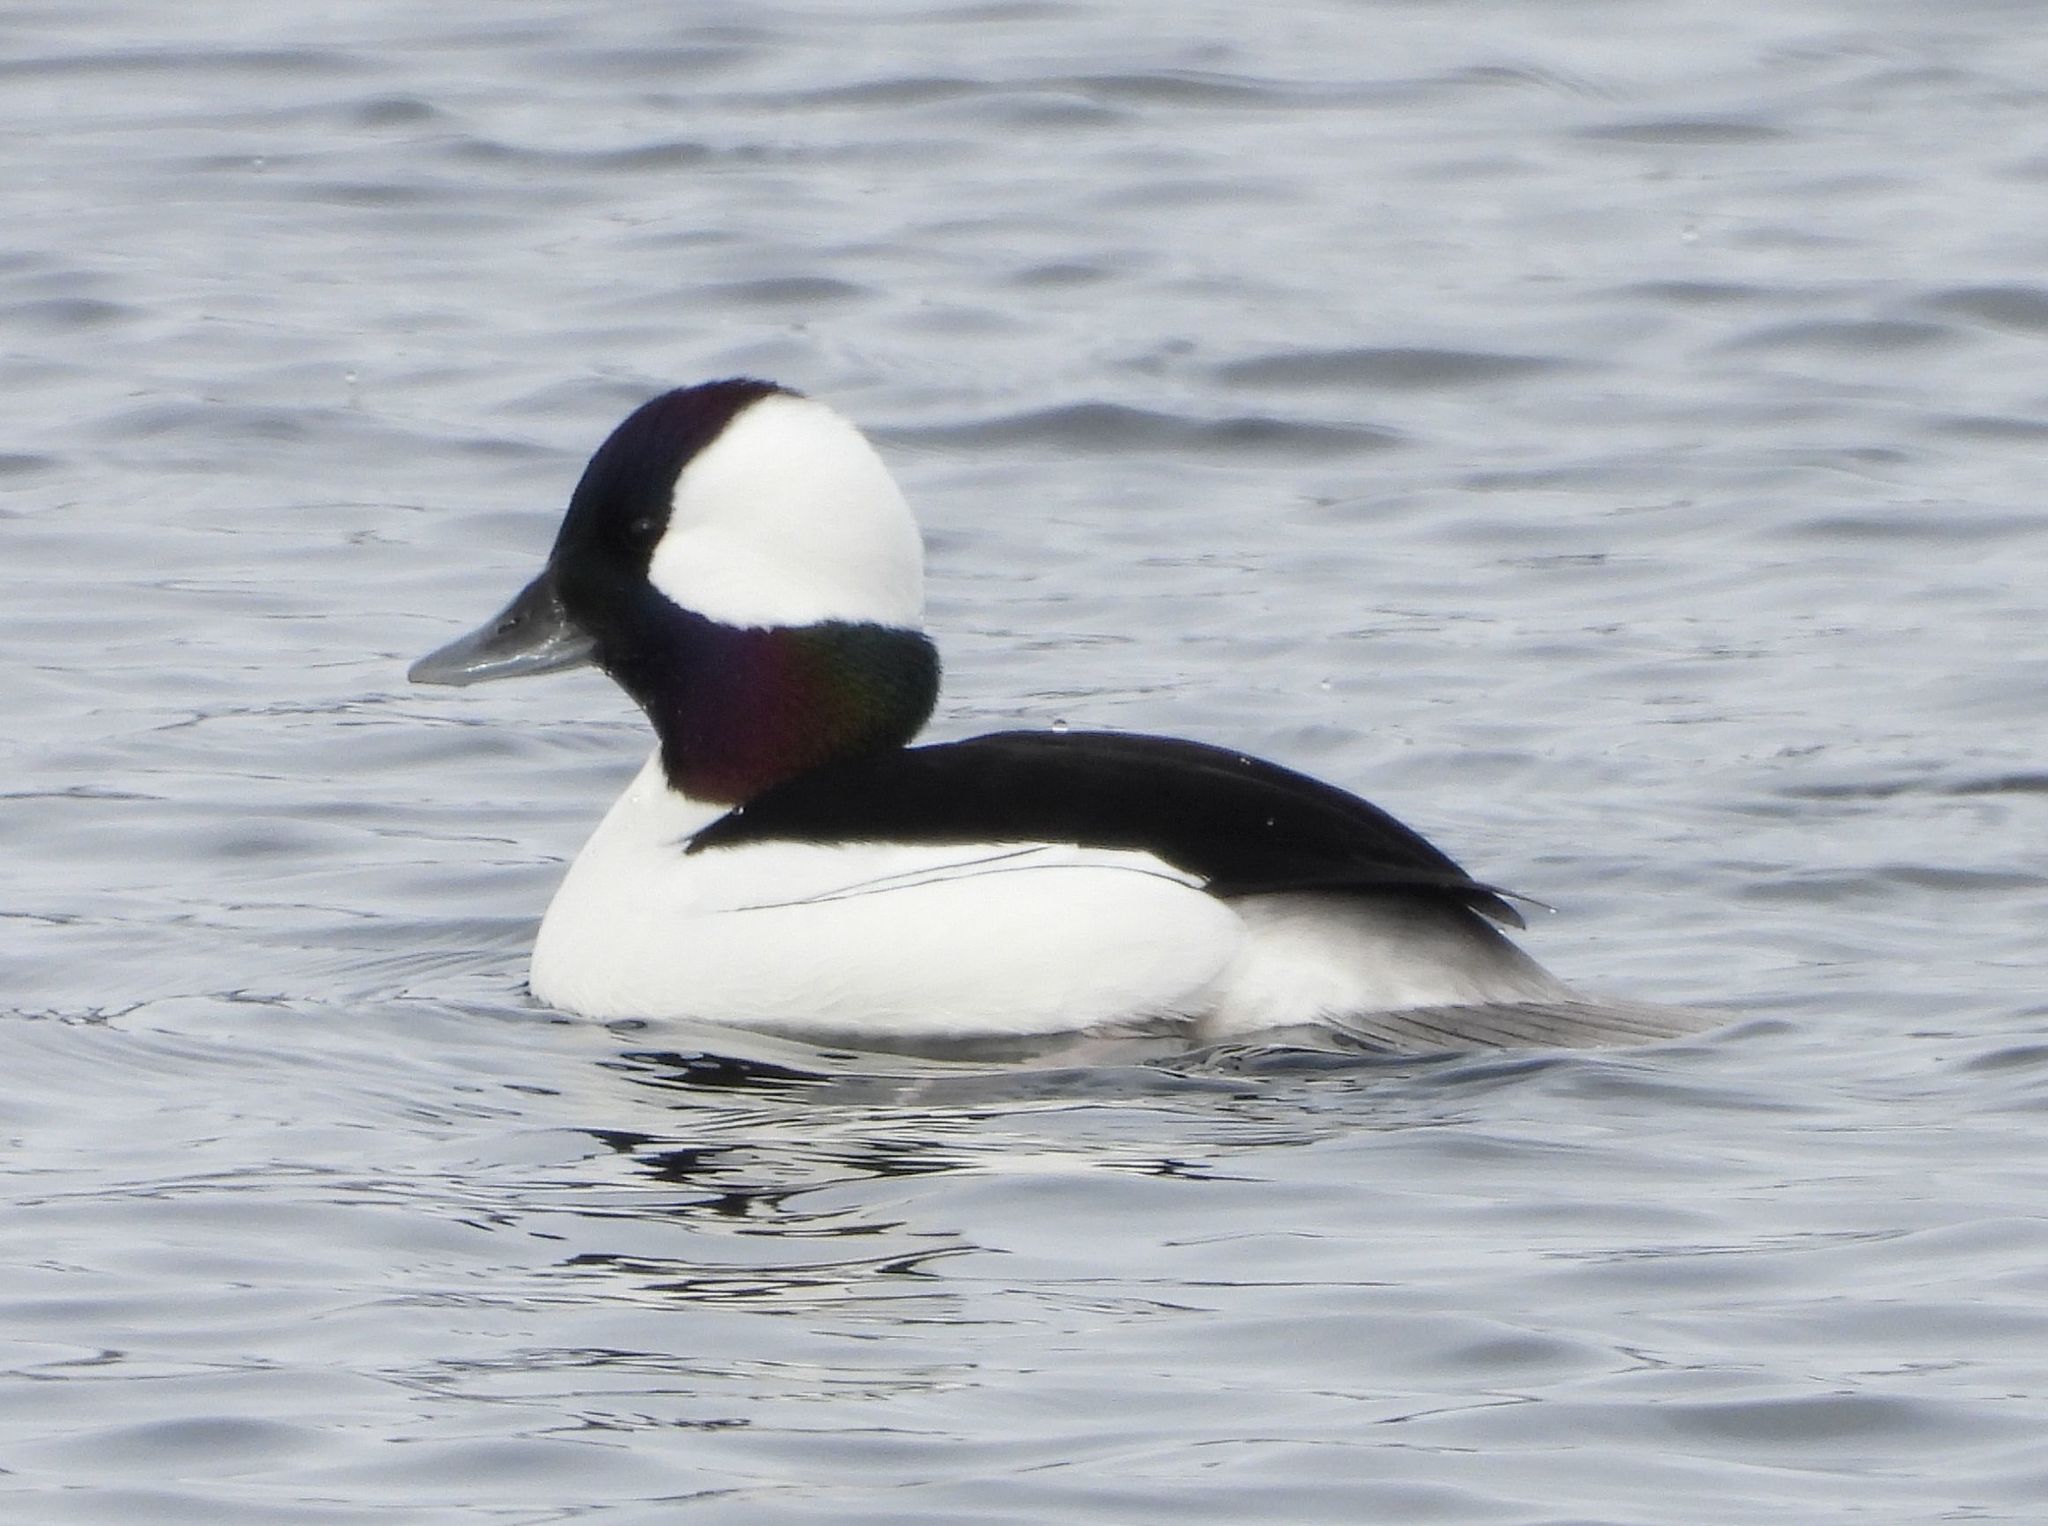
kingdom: Animalia
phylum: Chordata
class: Aves
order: Anseriformes
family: Anatidae
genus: Bucephala
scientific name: Bucephala albeola
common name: Bufflehead
